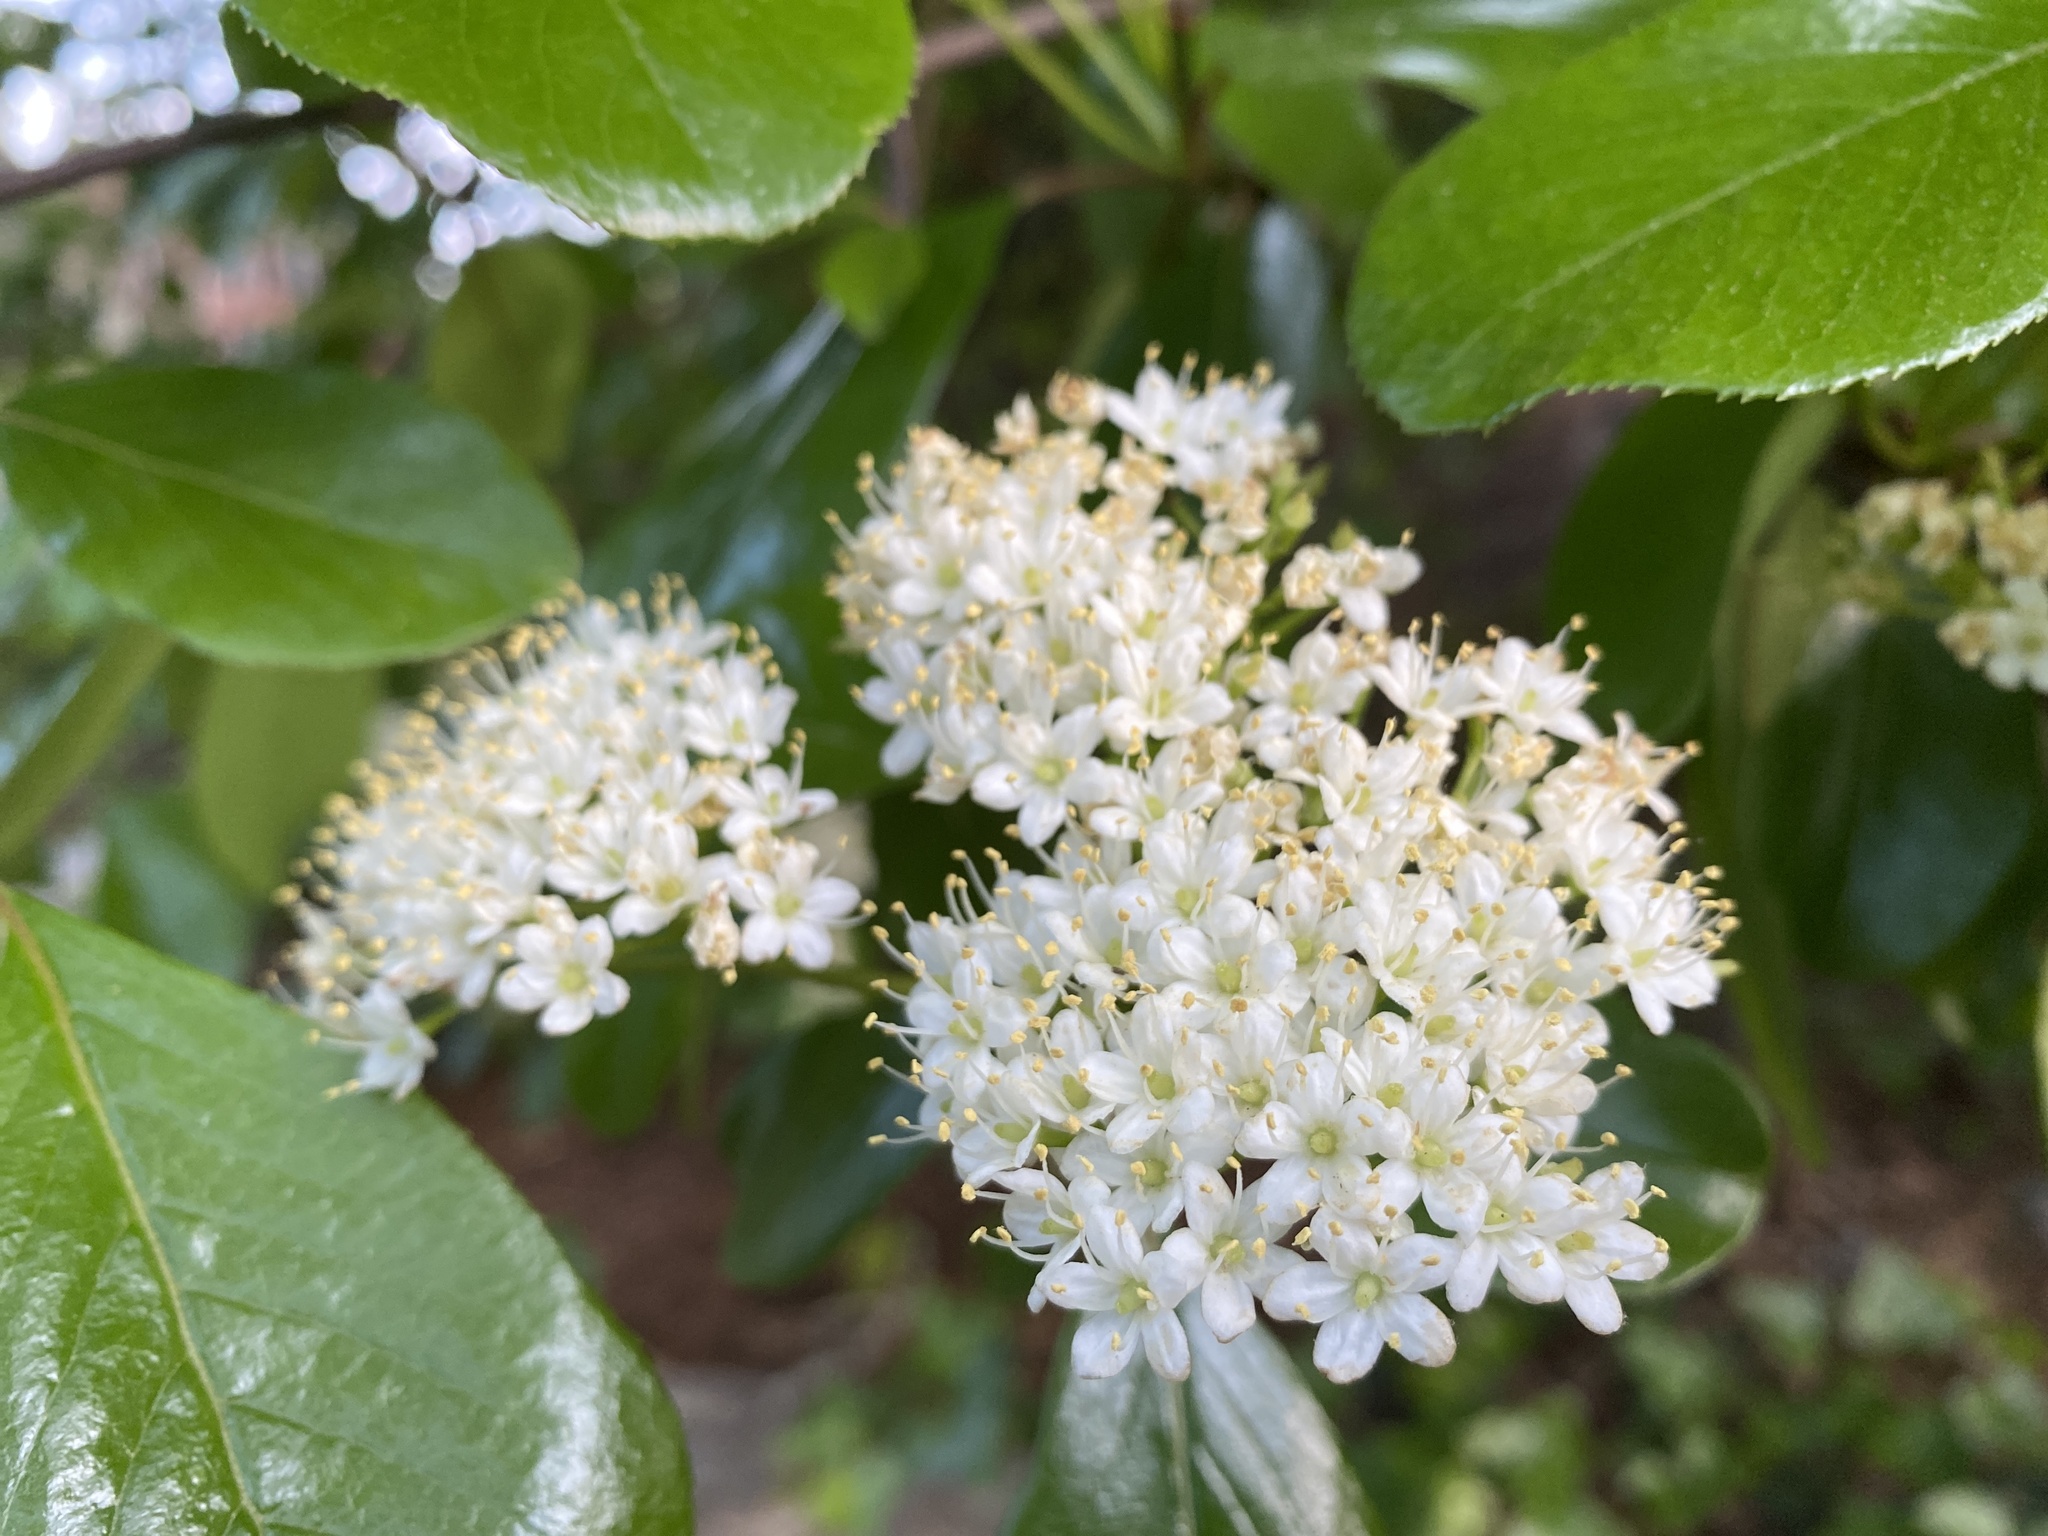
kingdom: Plantae
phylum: Tracheophyta
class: Magnoliopsida
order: Dipsacales
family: Viburnaceae
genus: Viburnum
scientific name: Viburnum rufidulum
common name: Blue haw
